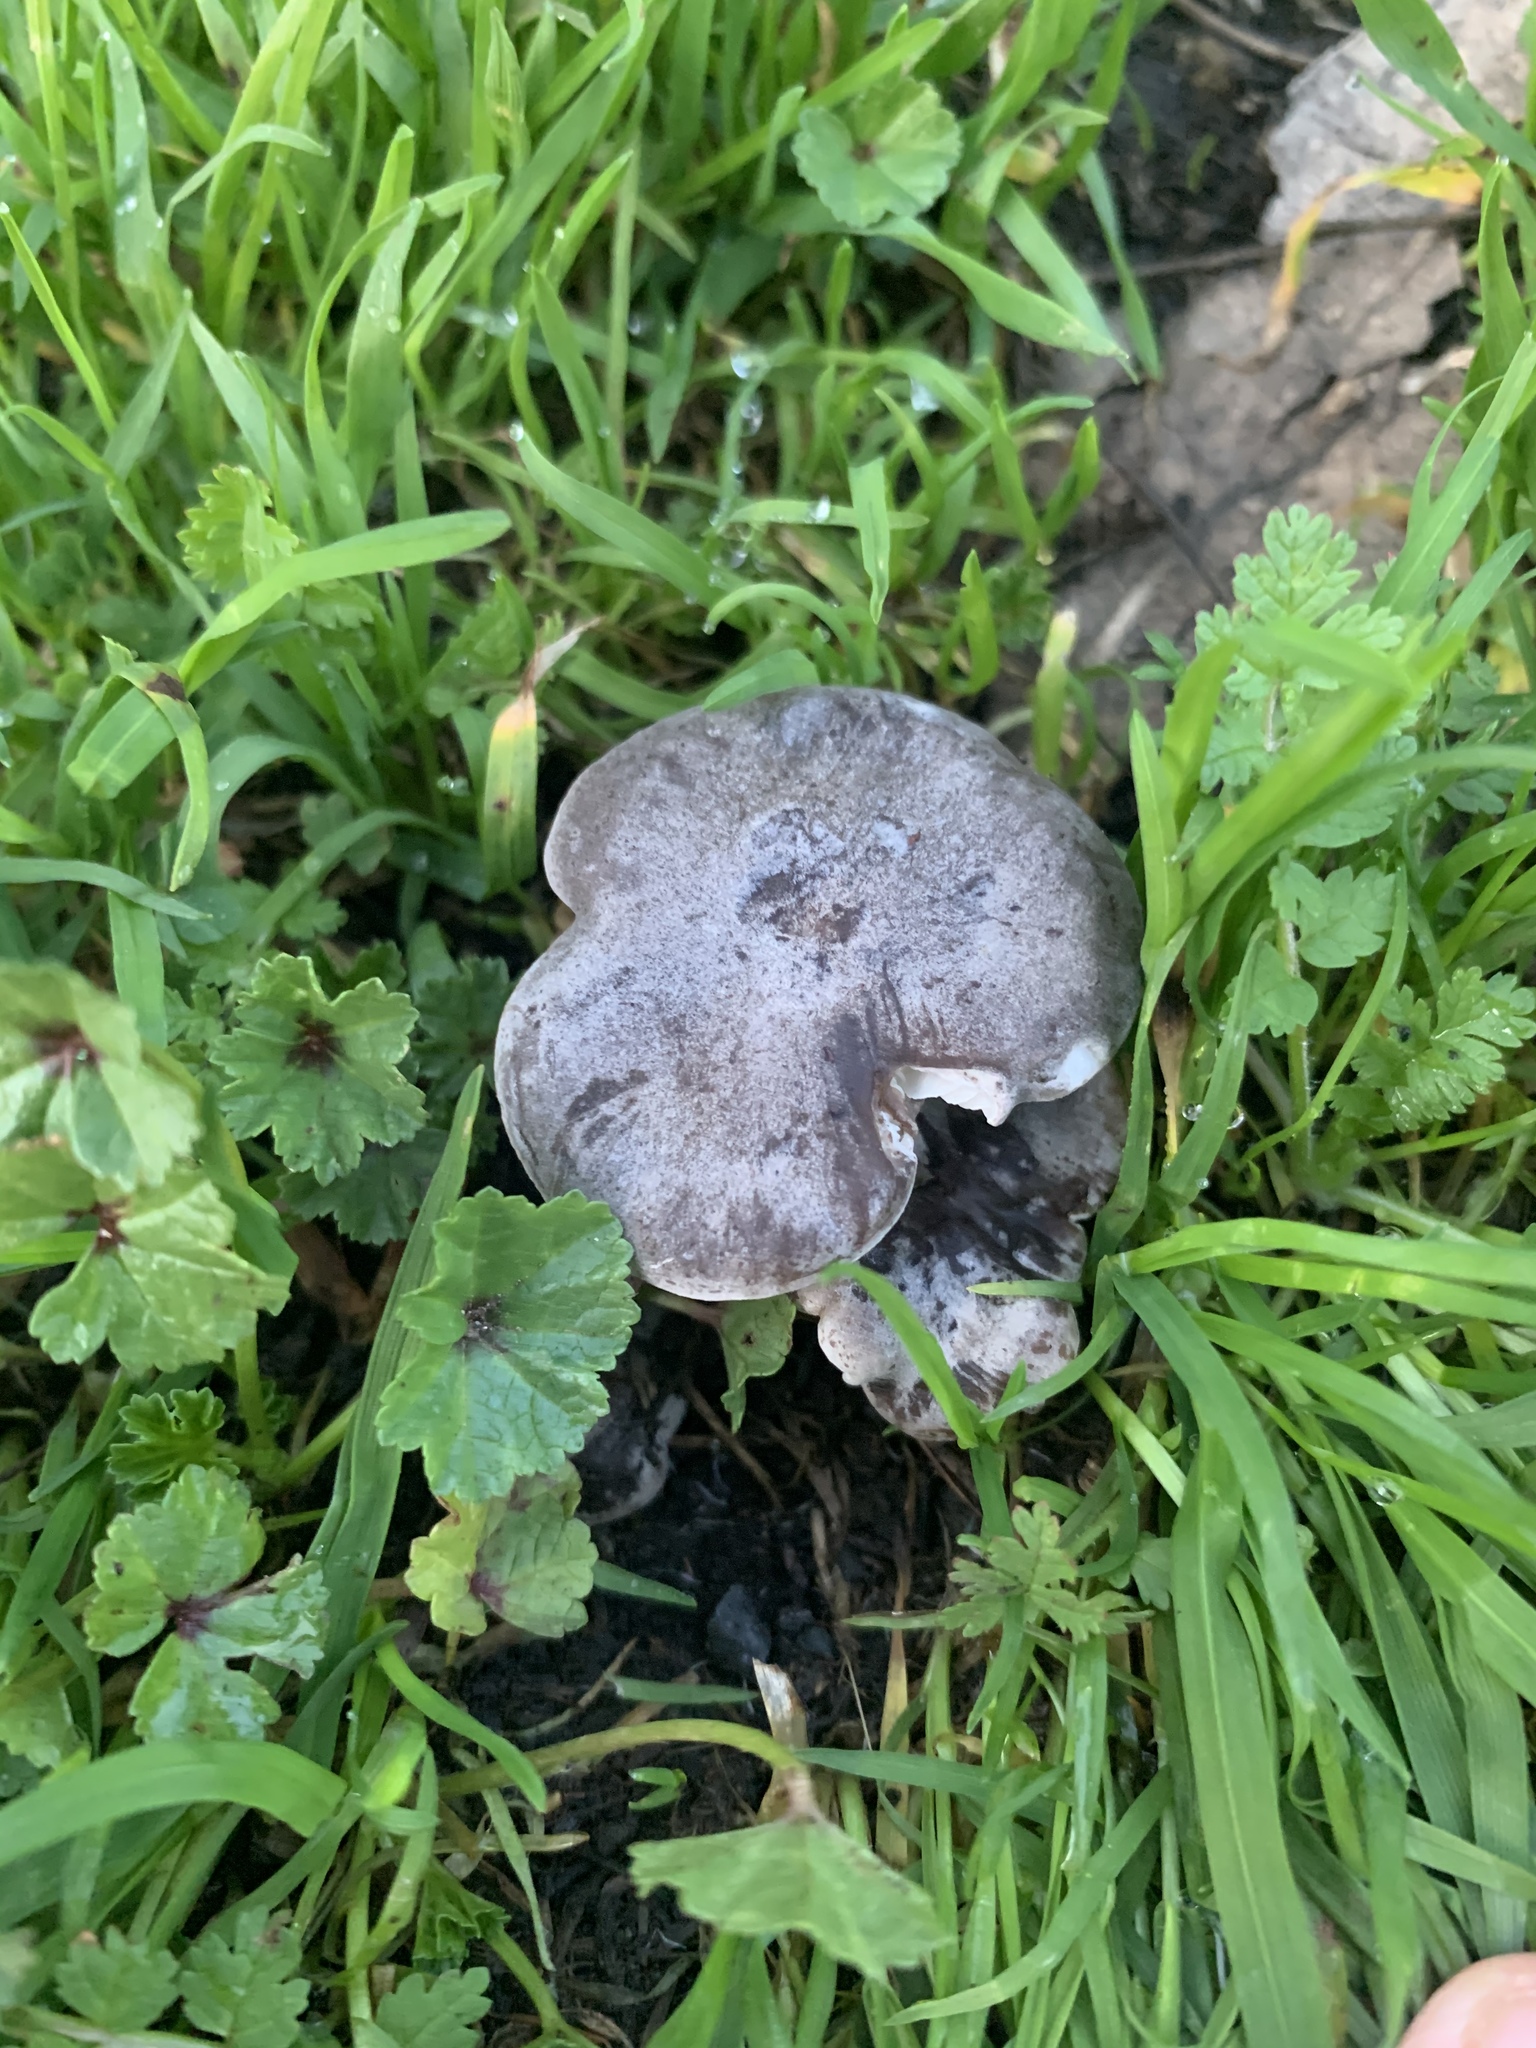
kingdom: Fungi
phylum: Basidiomycota
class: Agaricomycetes
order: Agaricales
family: Tricholomataceae
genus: Tricholoma
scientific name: Tricholoma terreum
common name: Grey knight
